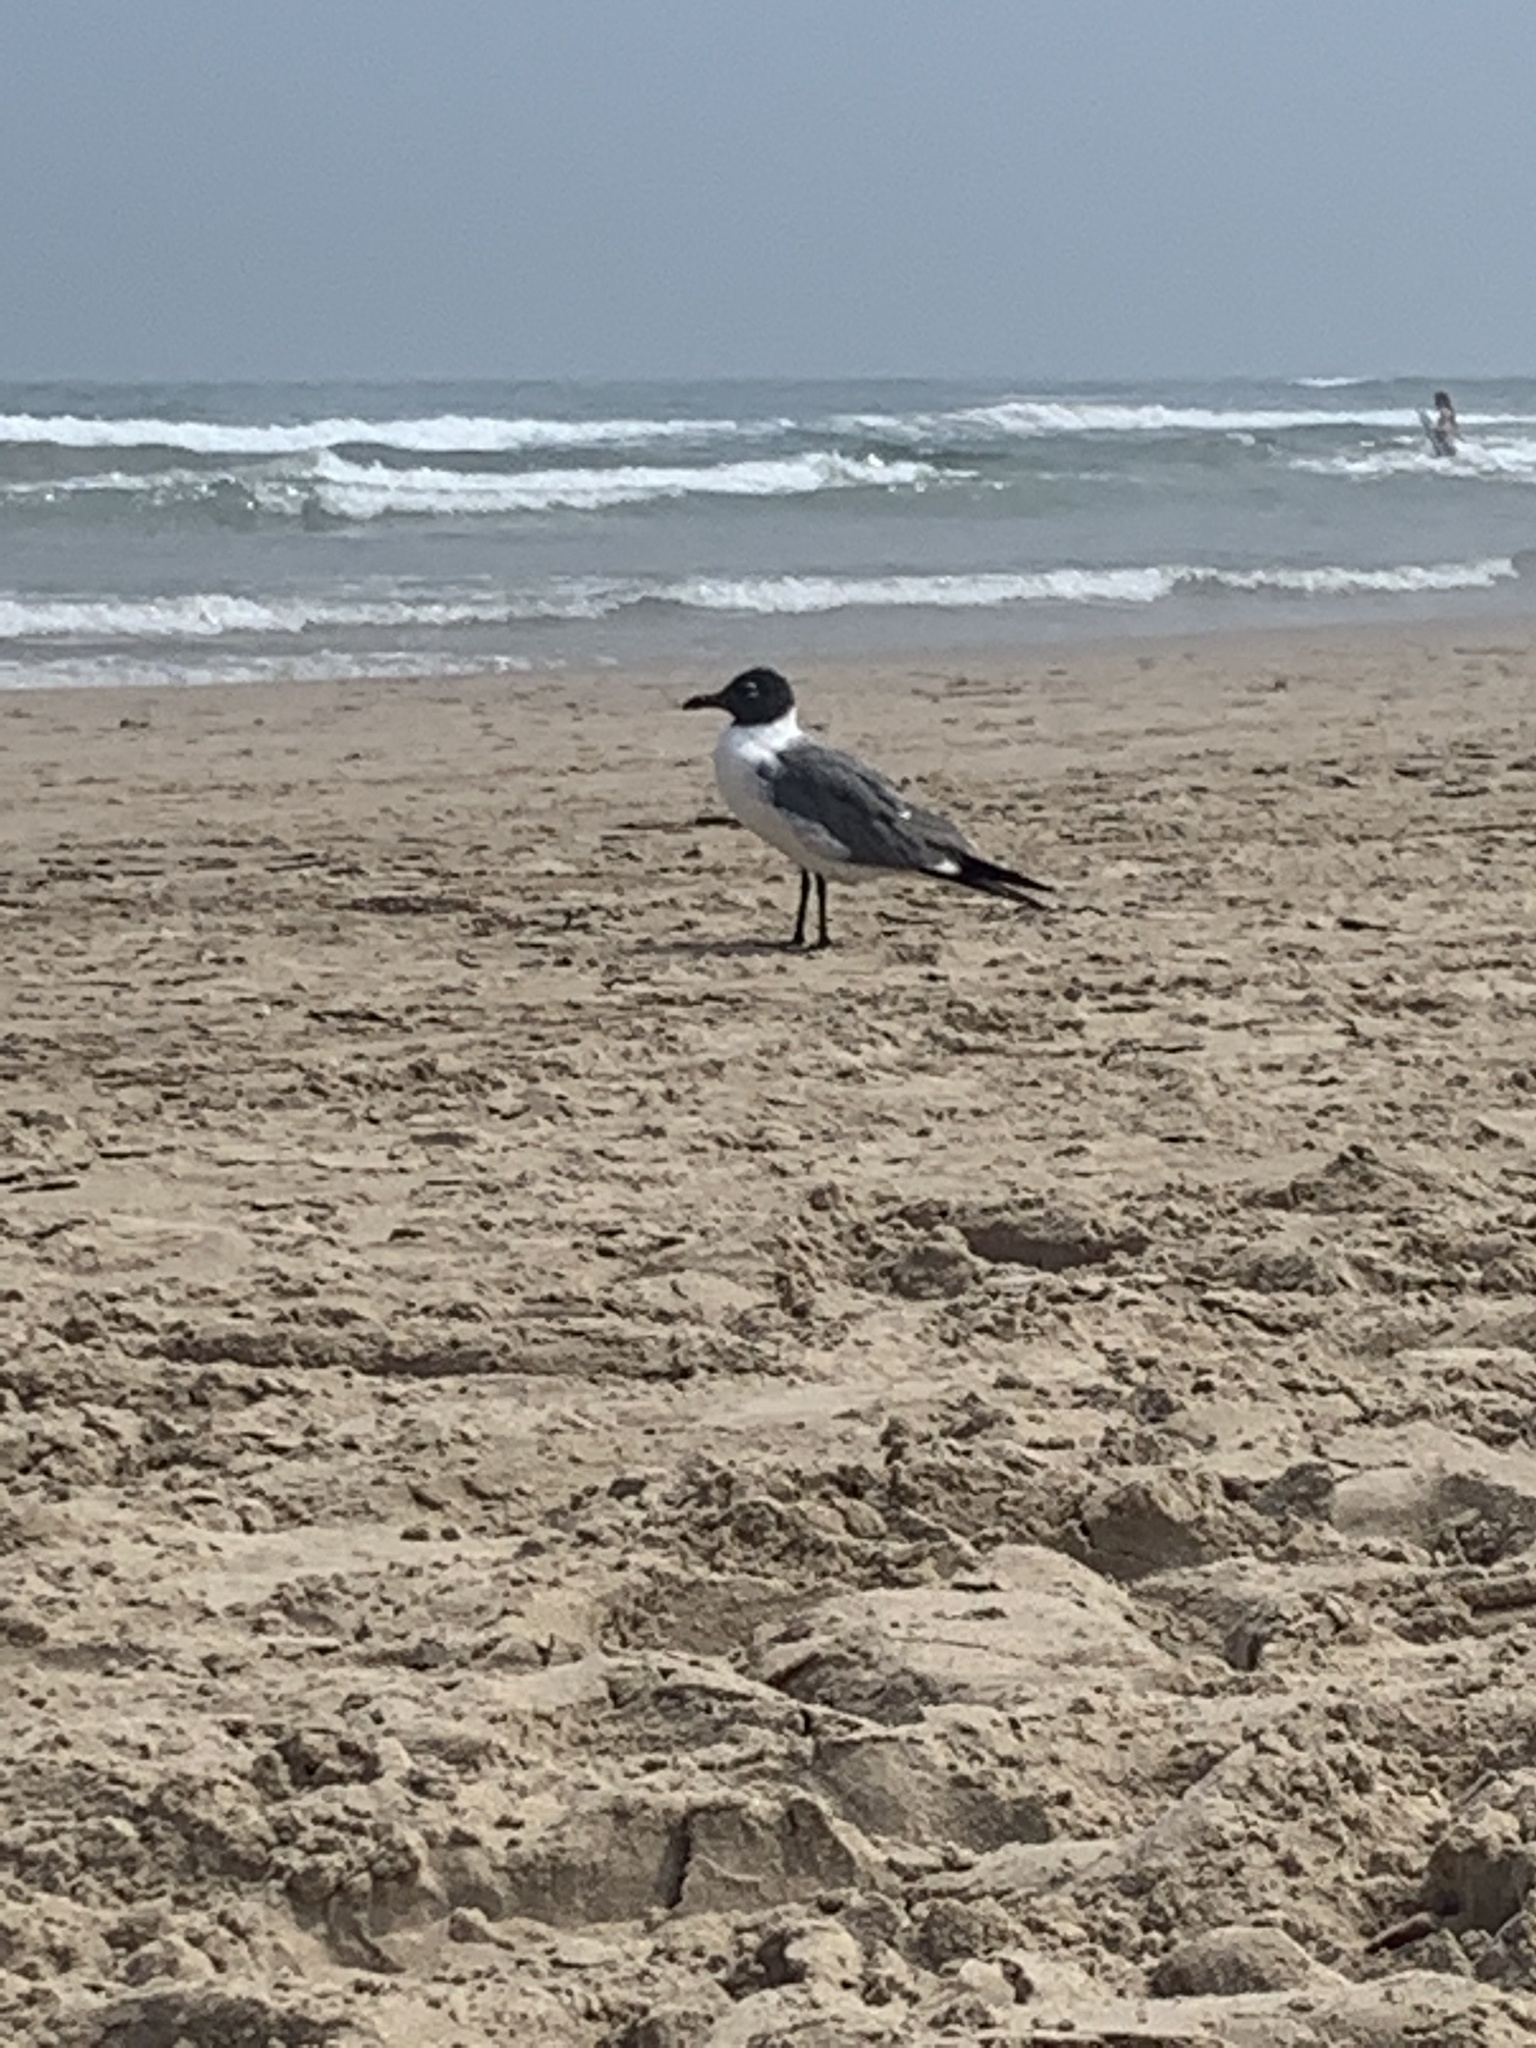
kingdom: Animalia
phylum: Chordata
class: Aves
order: Charadriiformes
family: Laridae
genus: Leucophaeus
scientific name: Leucophaeus atricilla
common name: Laughing gull
